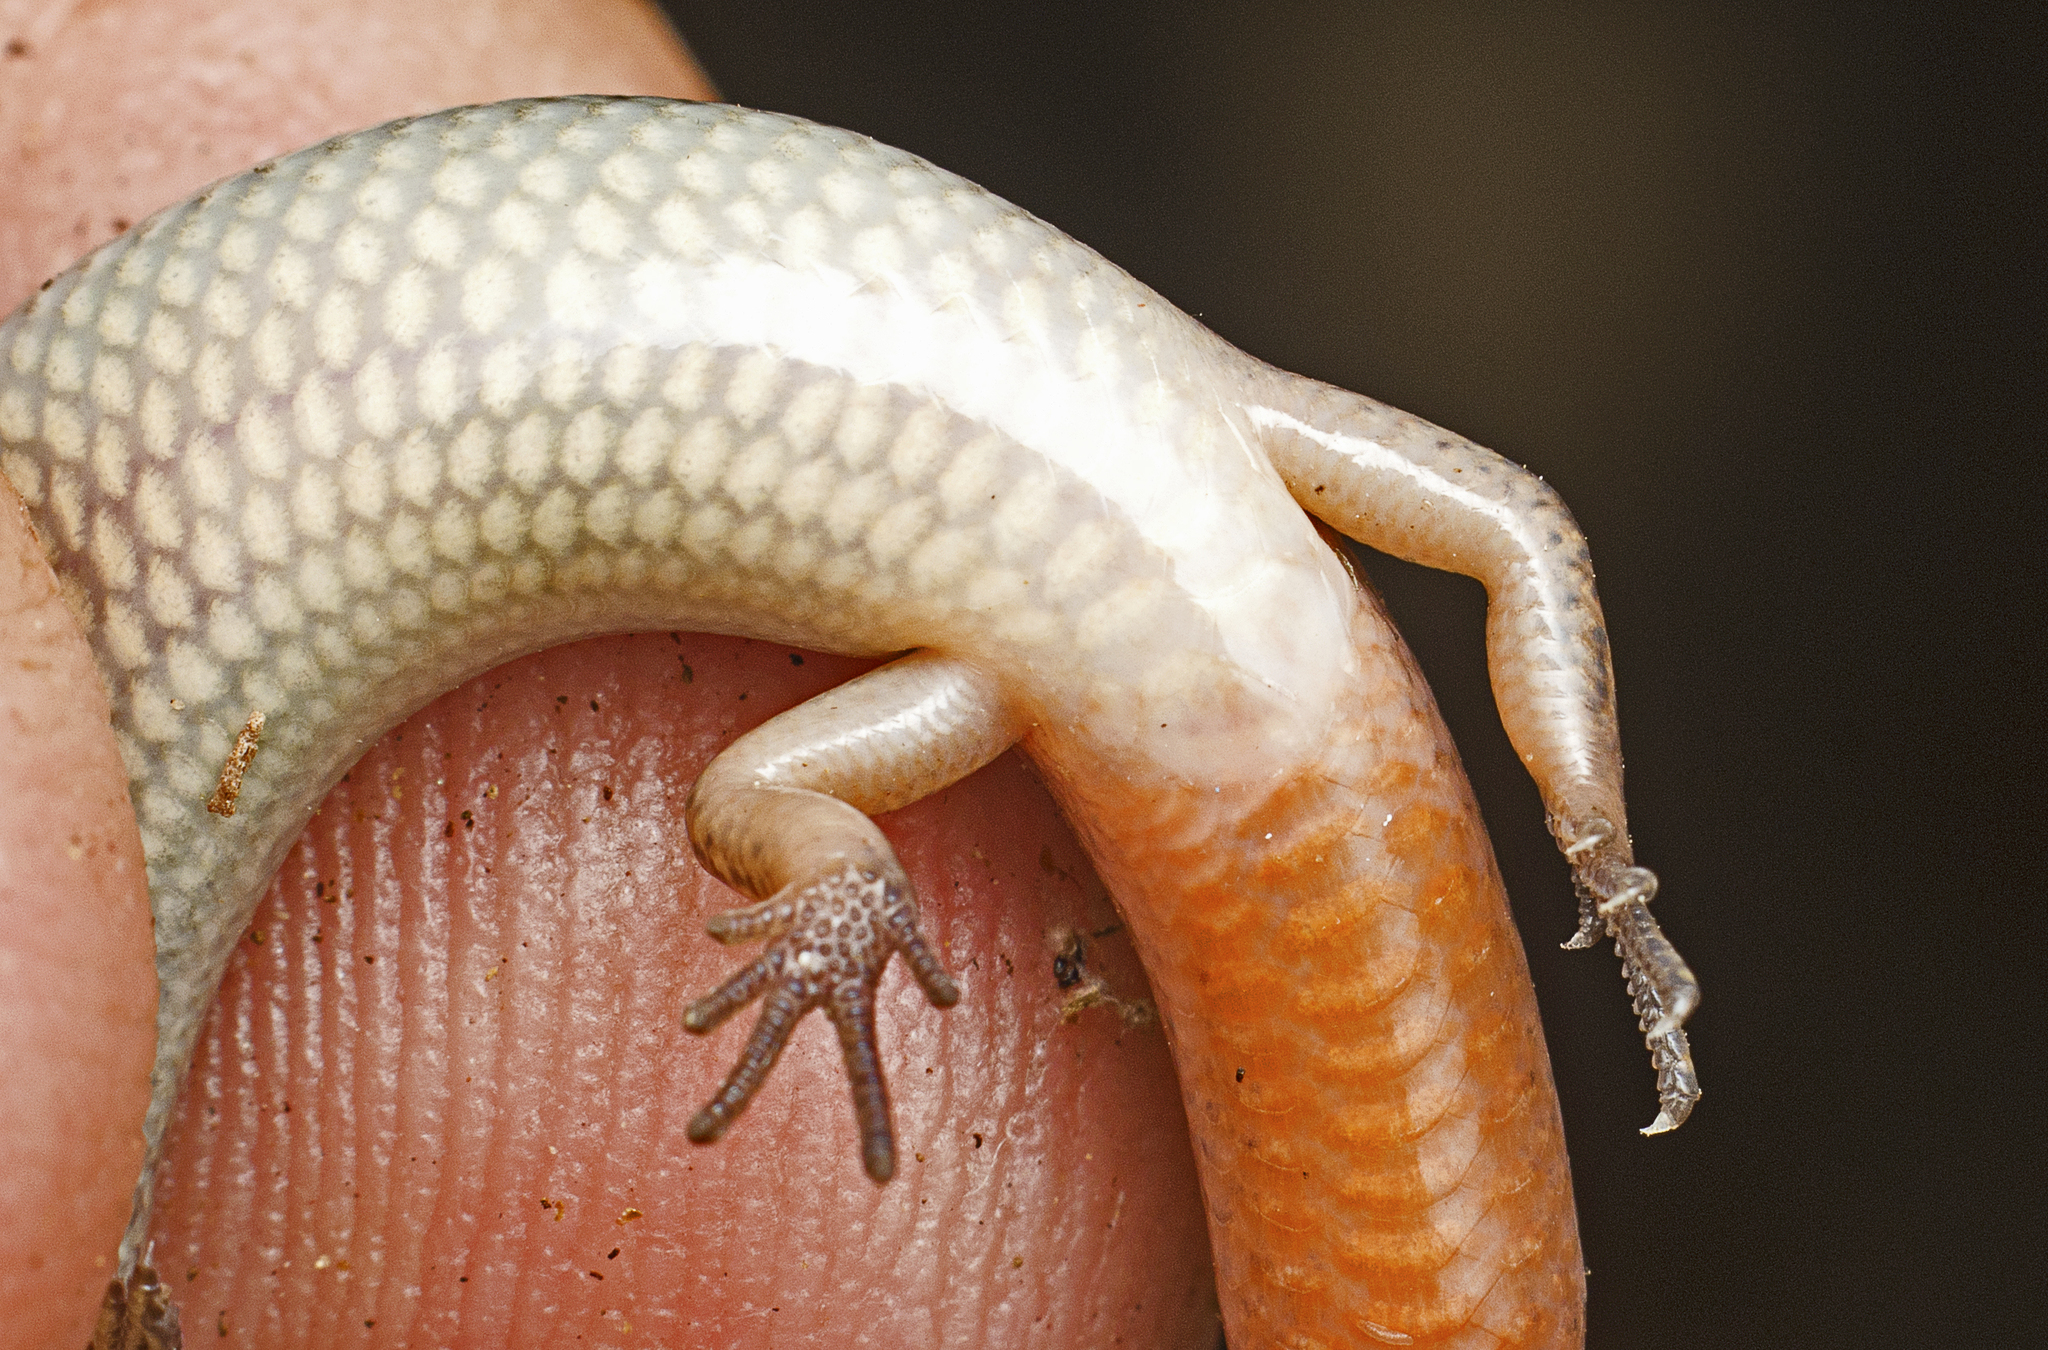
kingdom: Animalia
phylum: Chordata
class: Squamata
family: Scincidae
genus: Calyptotis
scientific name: Calyptotis scutirostrum
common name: Scute-snouted calyptotis
